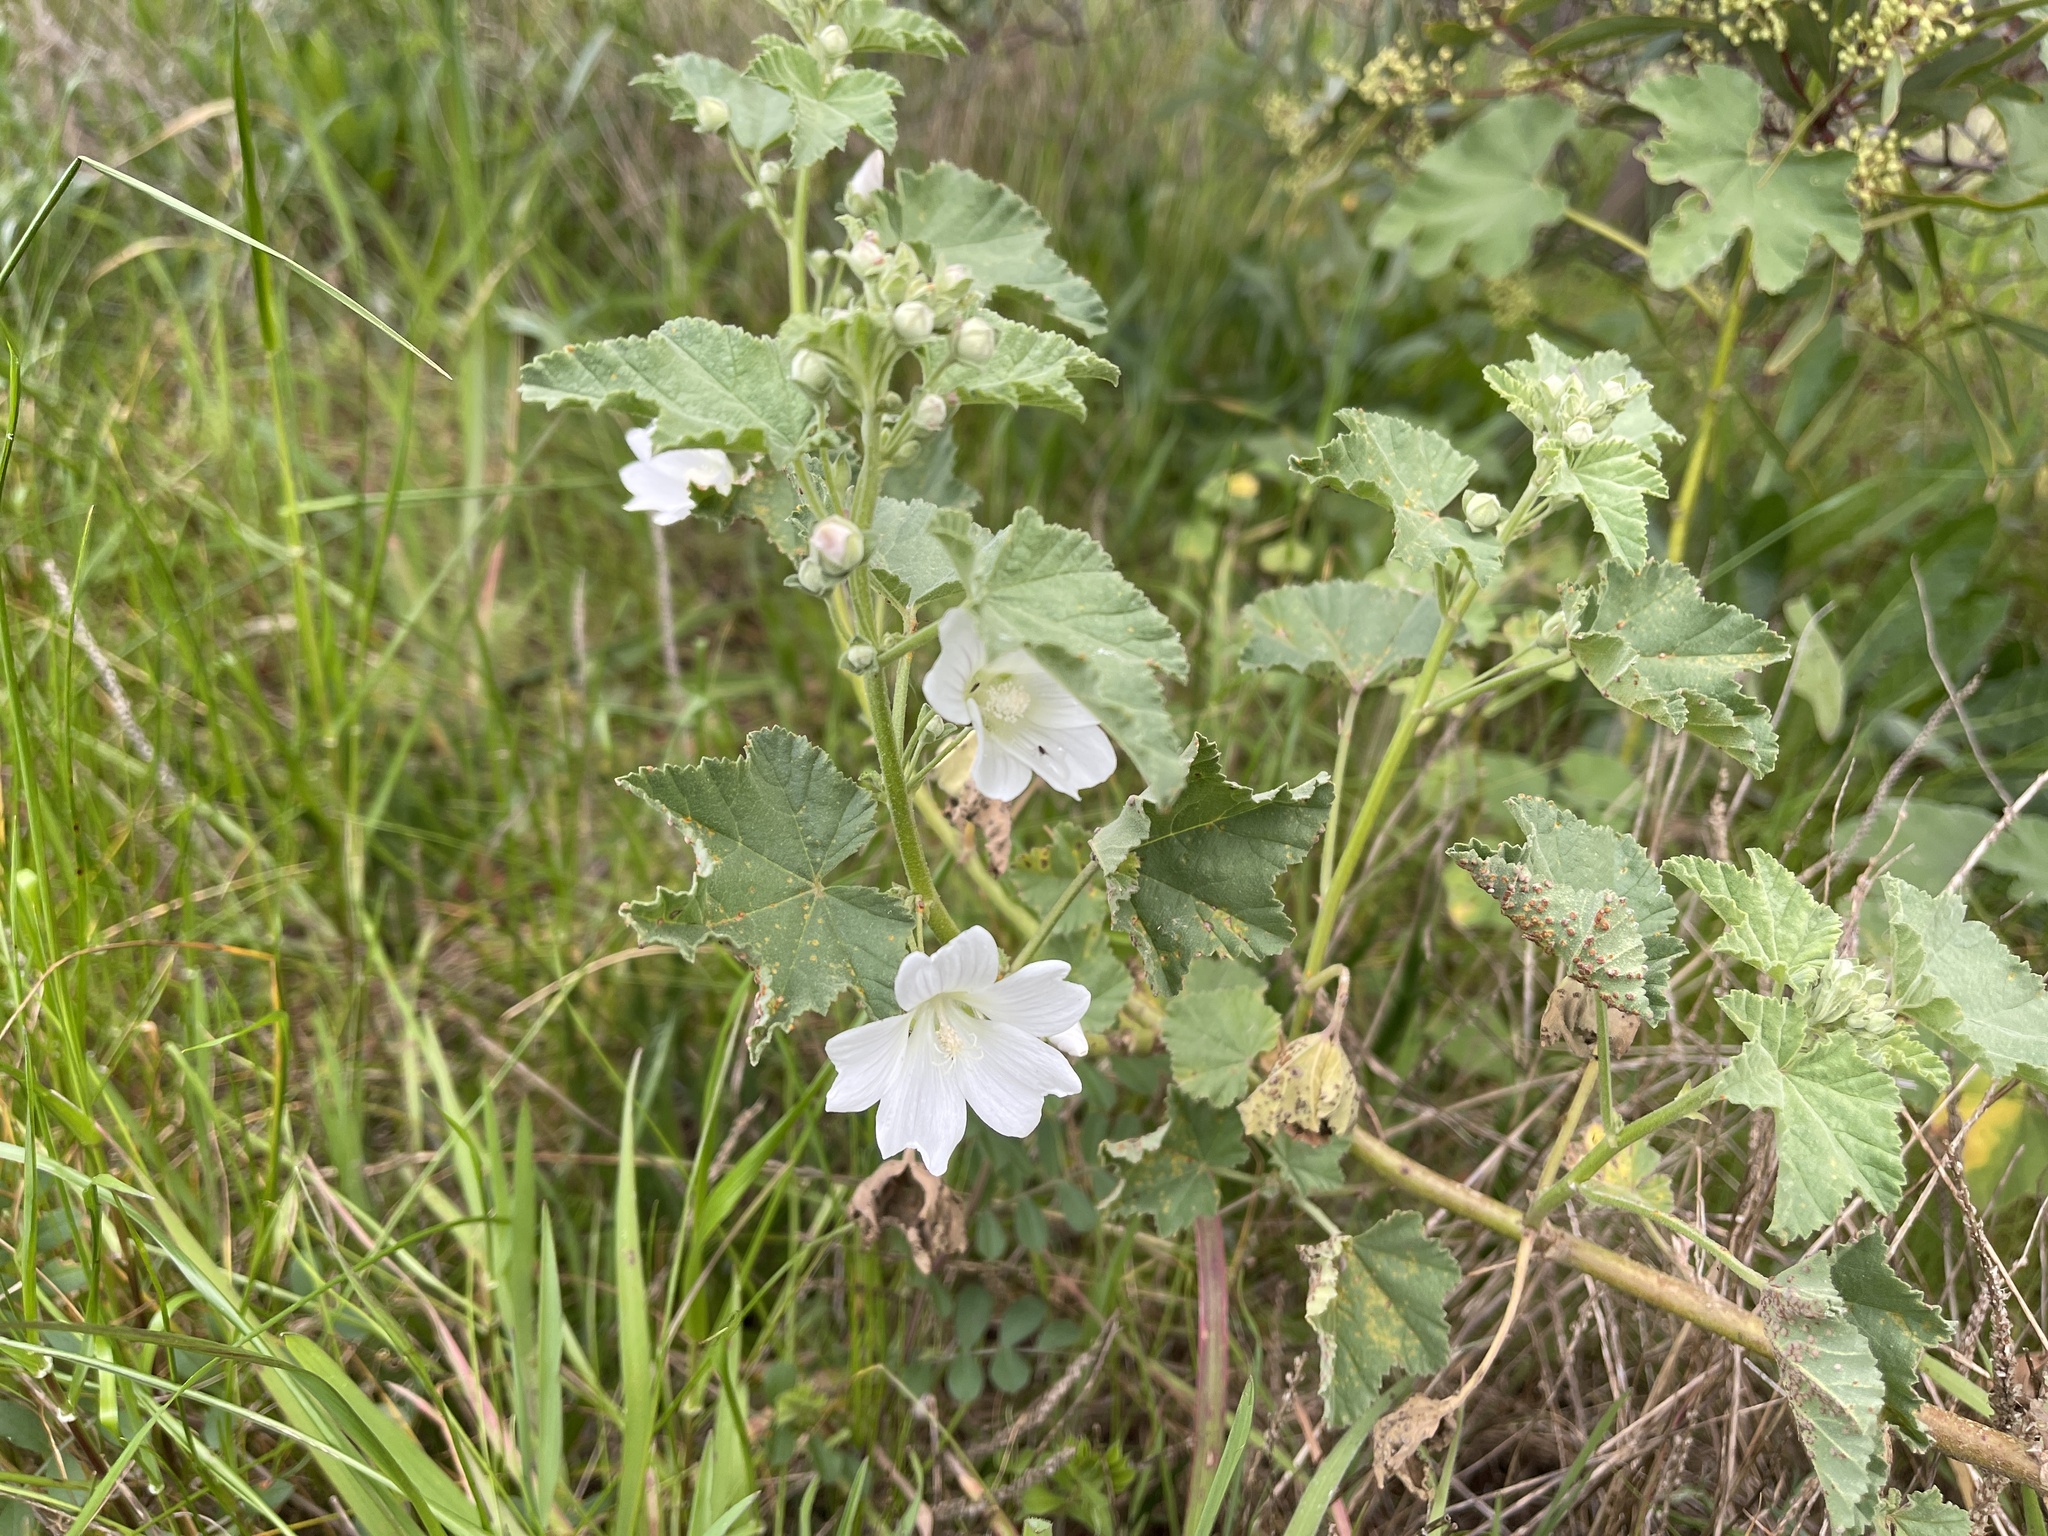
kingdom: Plantae
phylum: Tracheophyta
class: Magnoliopsida
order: Malvales
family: Malvaceae
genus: Malva
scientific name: Malva preissiana
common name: Australian-hollyhock
